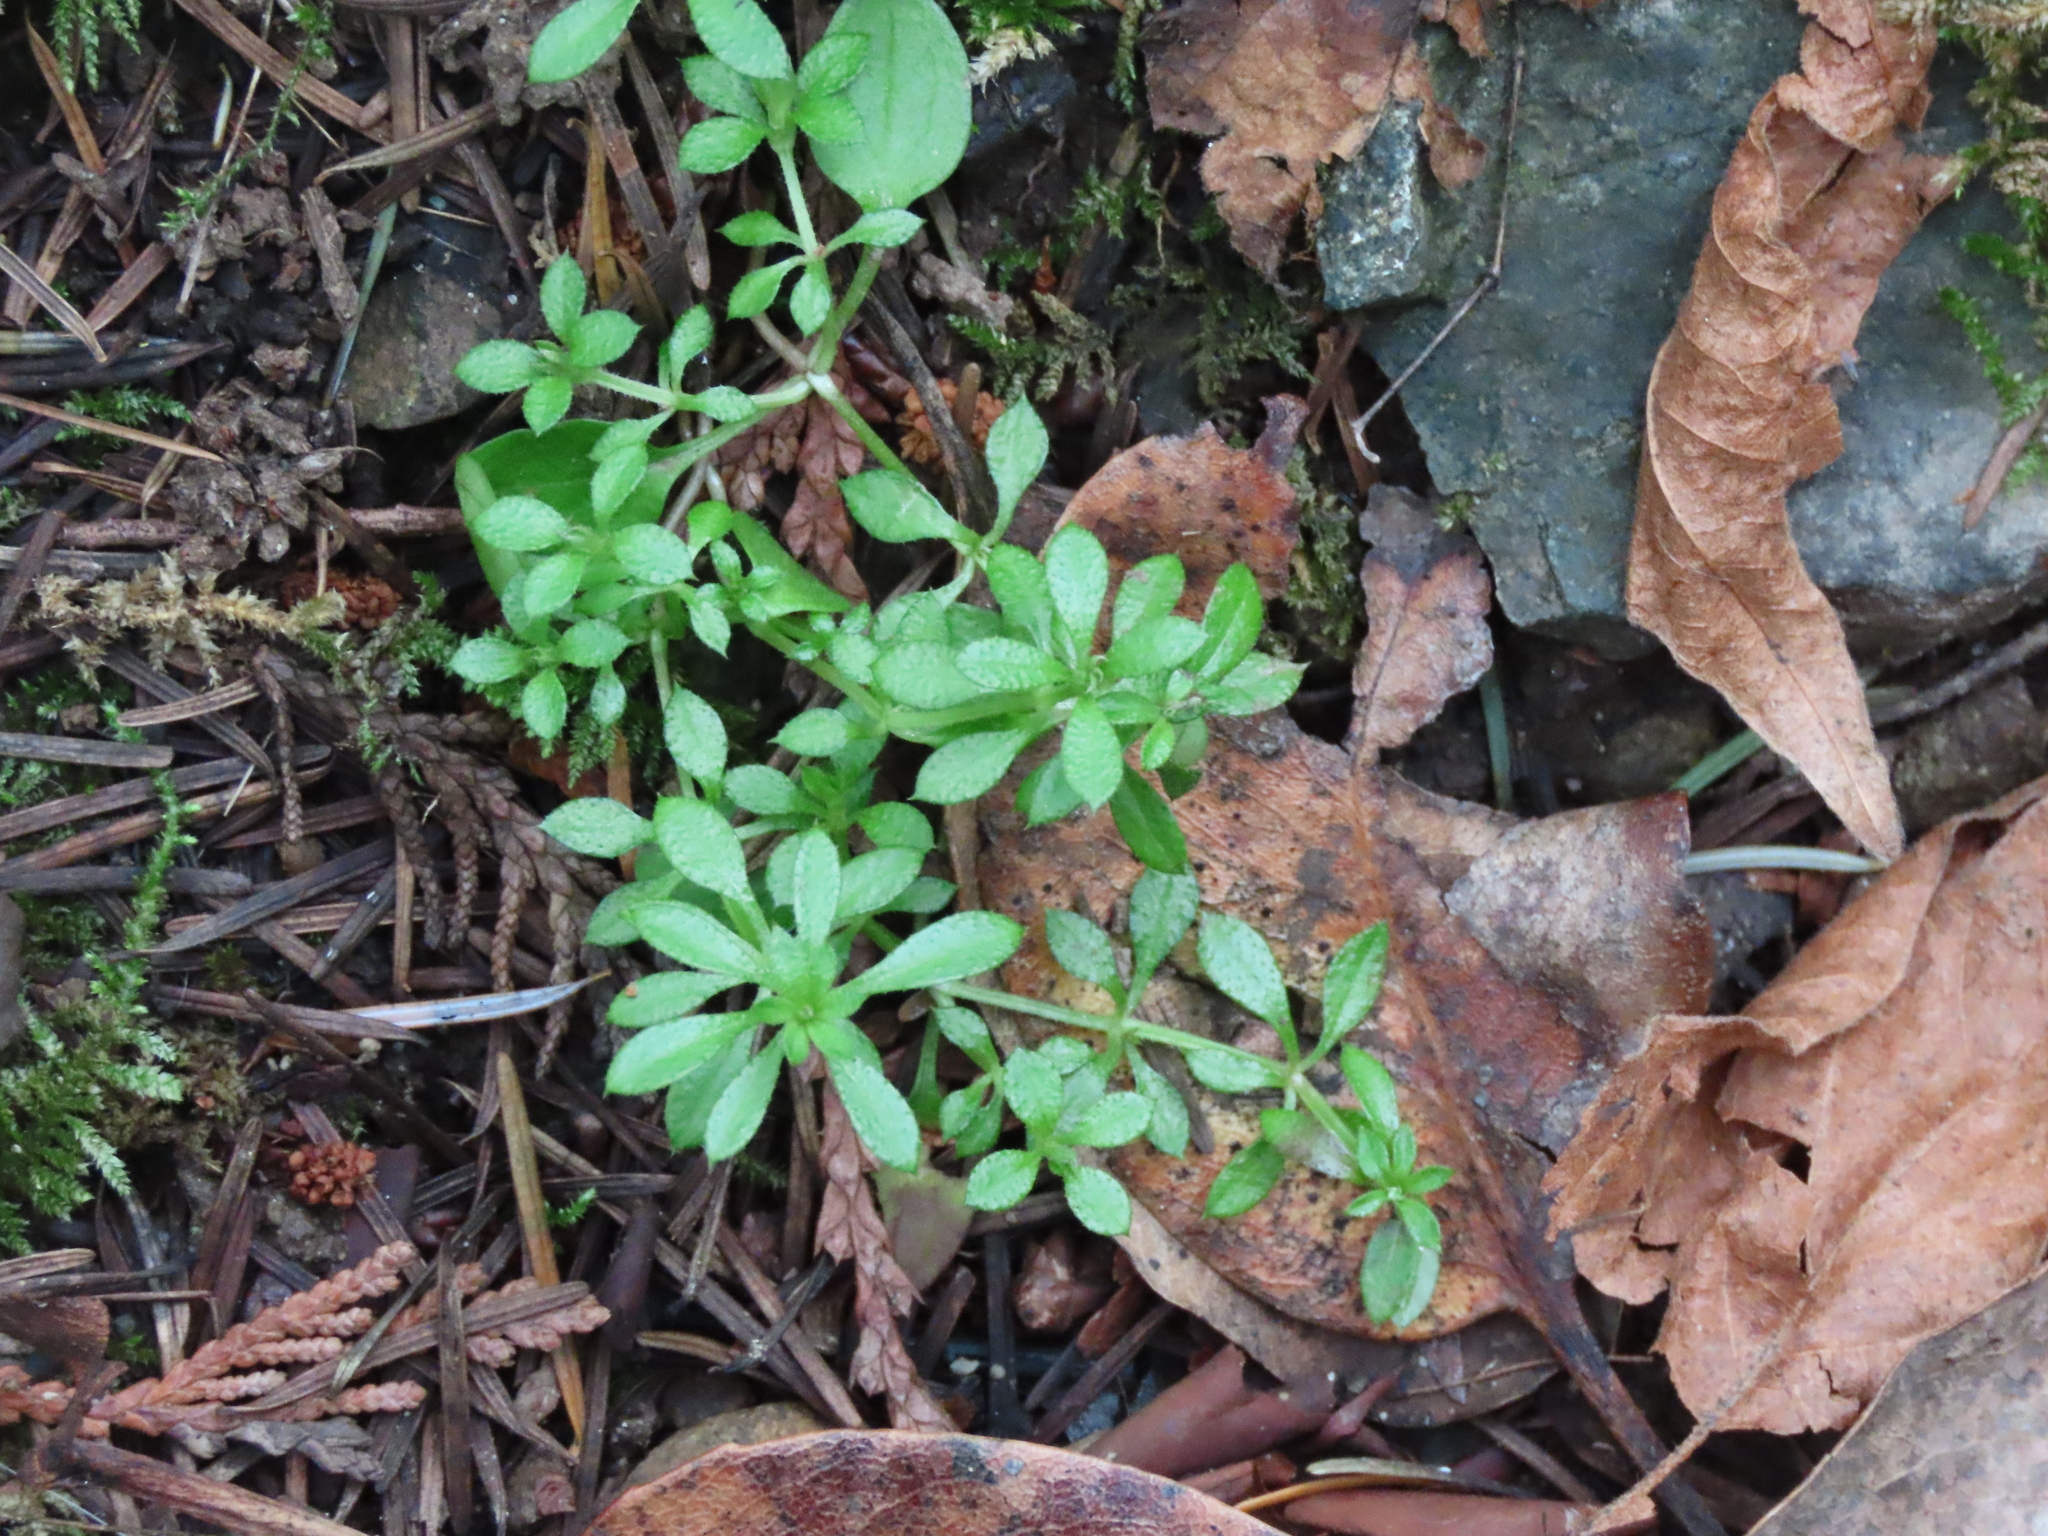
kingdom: Plantae
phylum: Tracheophyta
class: Magnoliopsida
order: Gentianales
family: Rubiaceae
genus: Galium
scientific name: Galium aparine
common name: Cleavers
